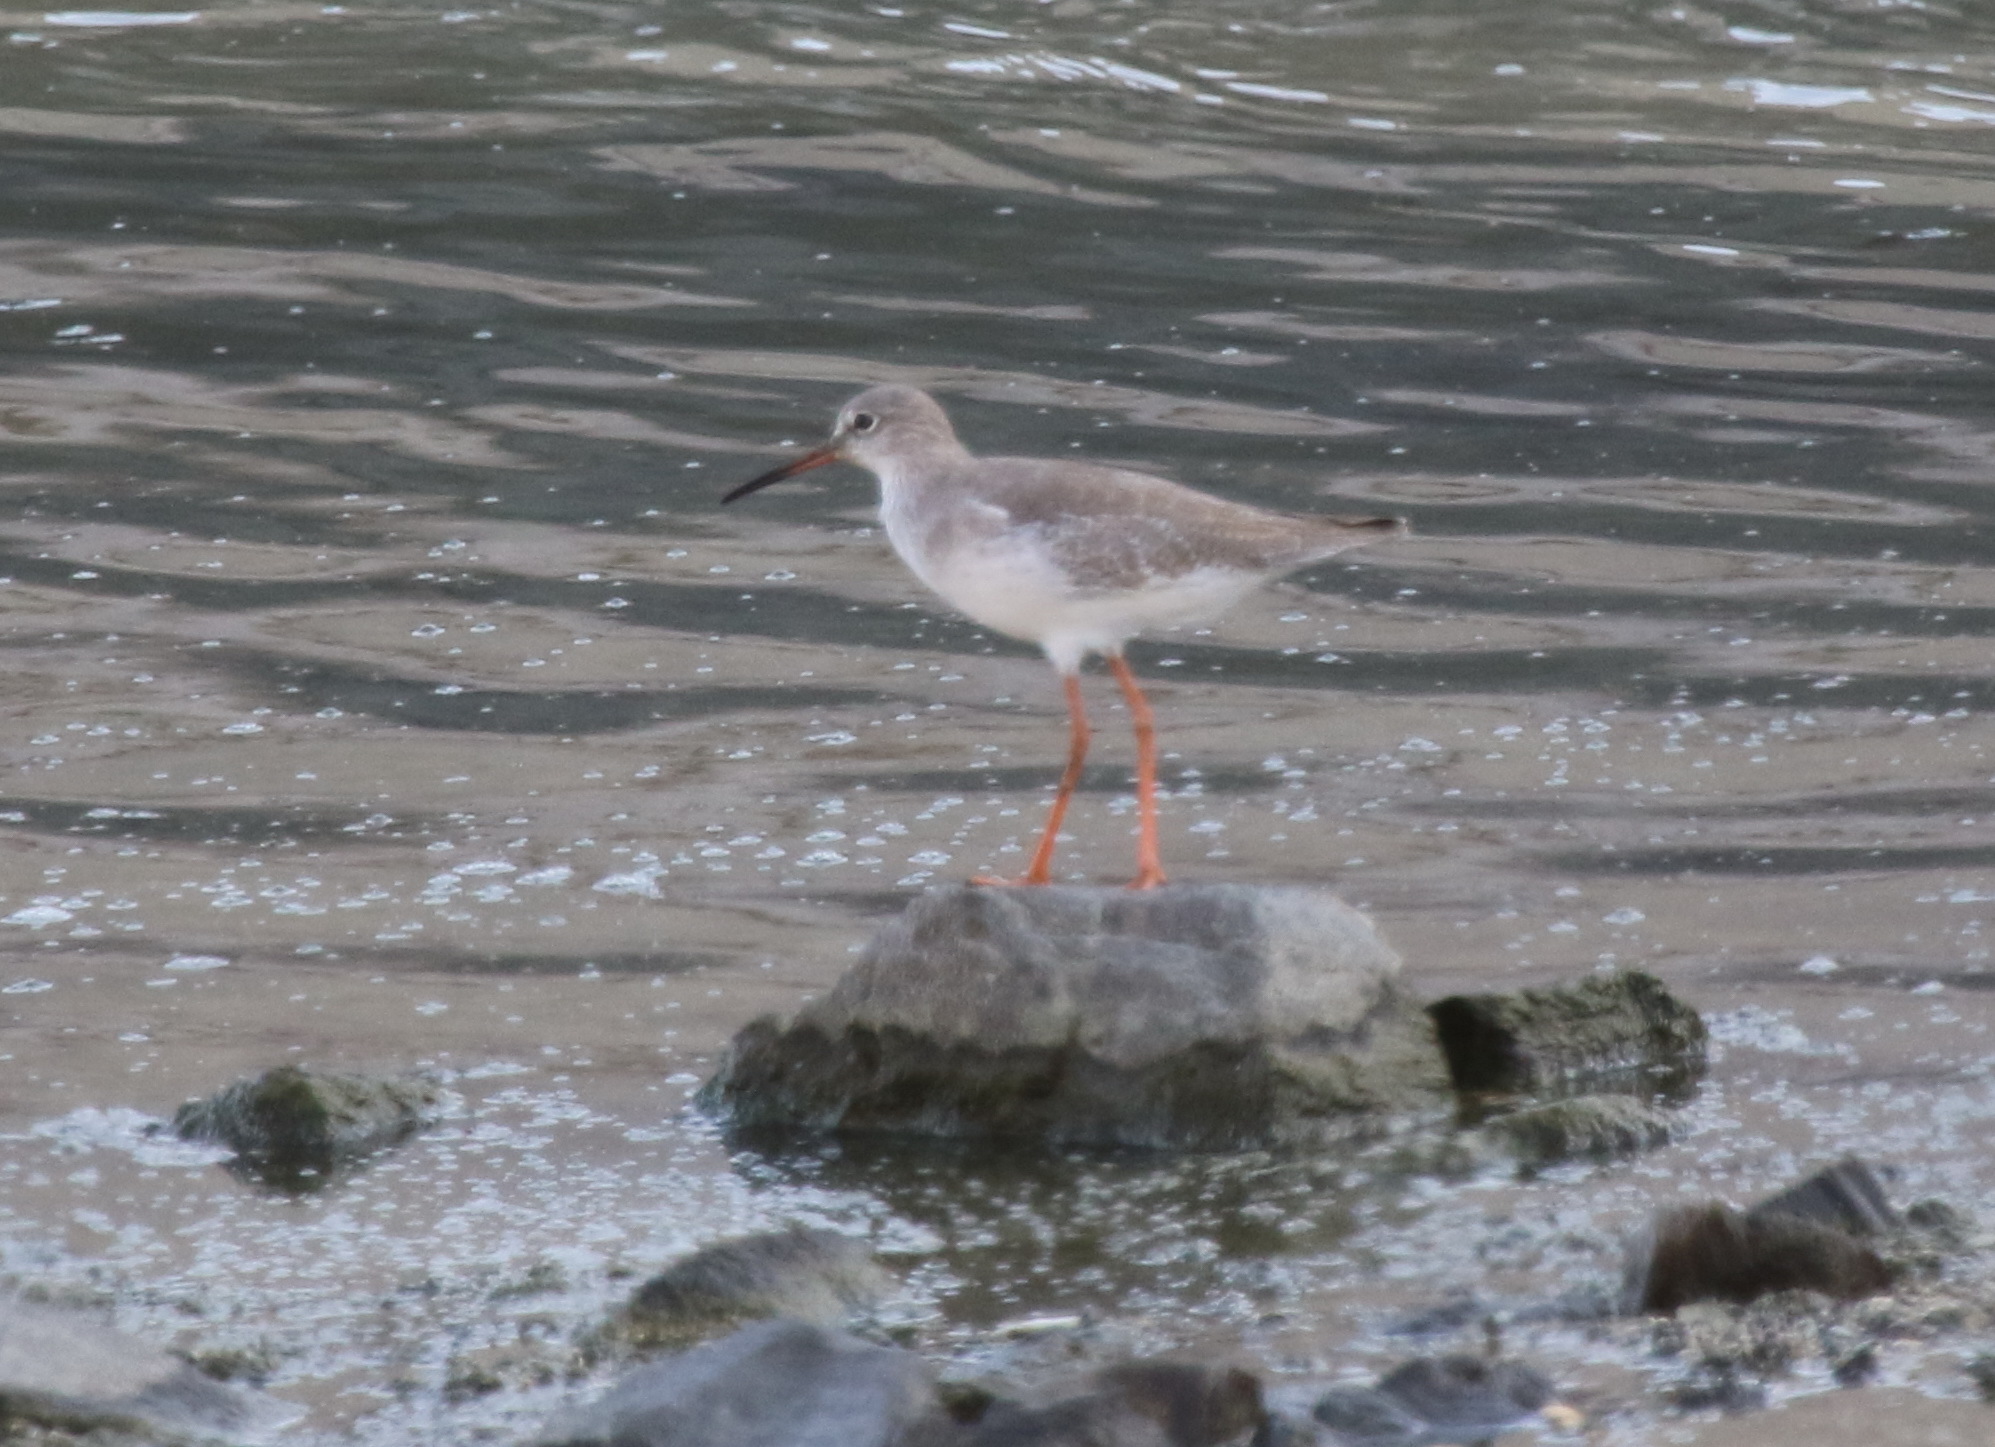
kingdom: Animalia
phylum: Chordata
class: Aves
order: Charadriiformes
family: Scolopacidae
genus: Tringa
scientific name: Tringa totanus
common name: Common redshank
